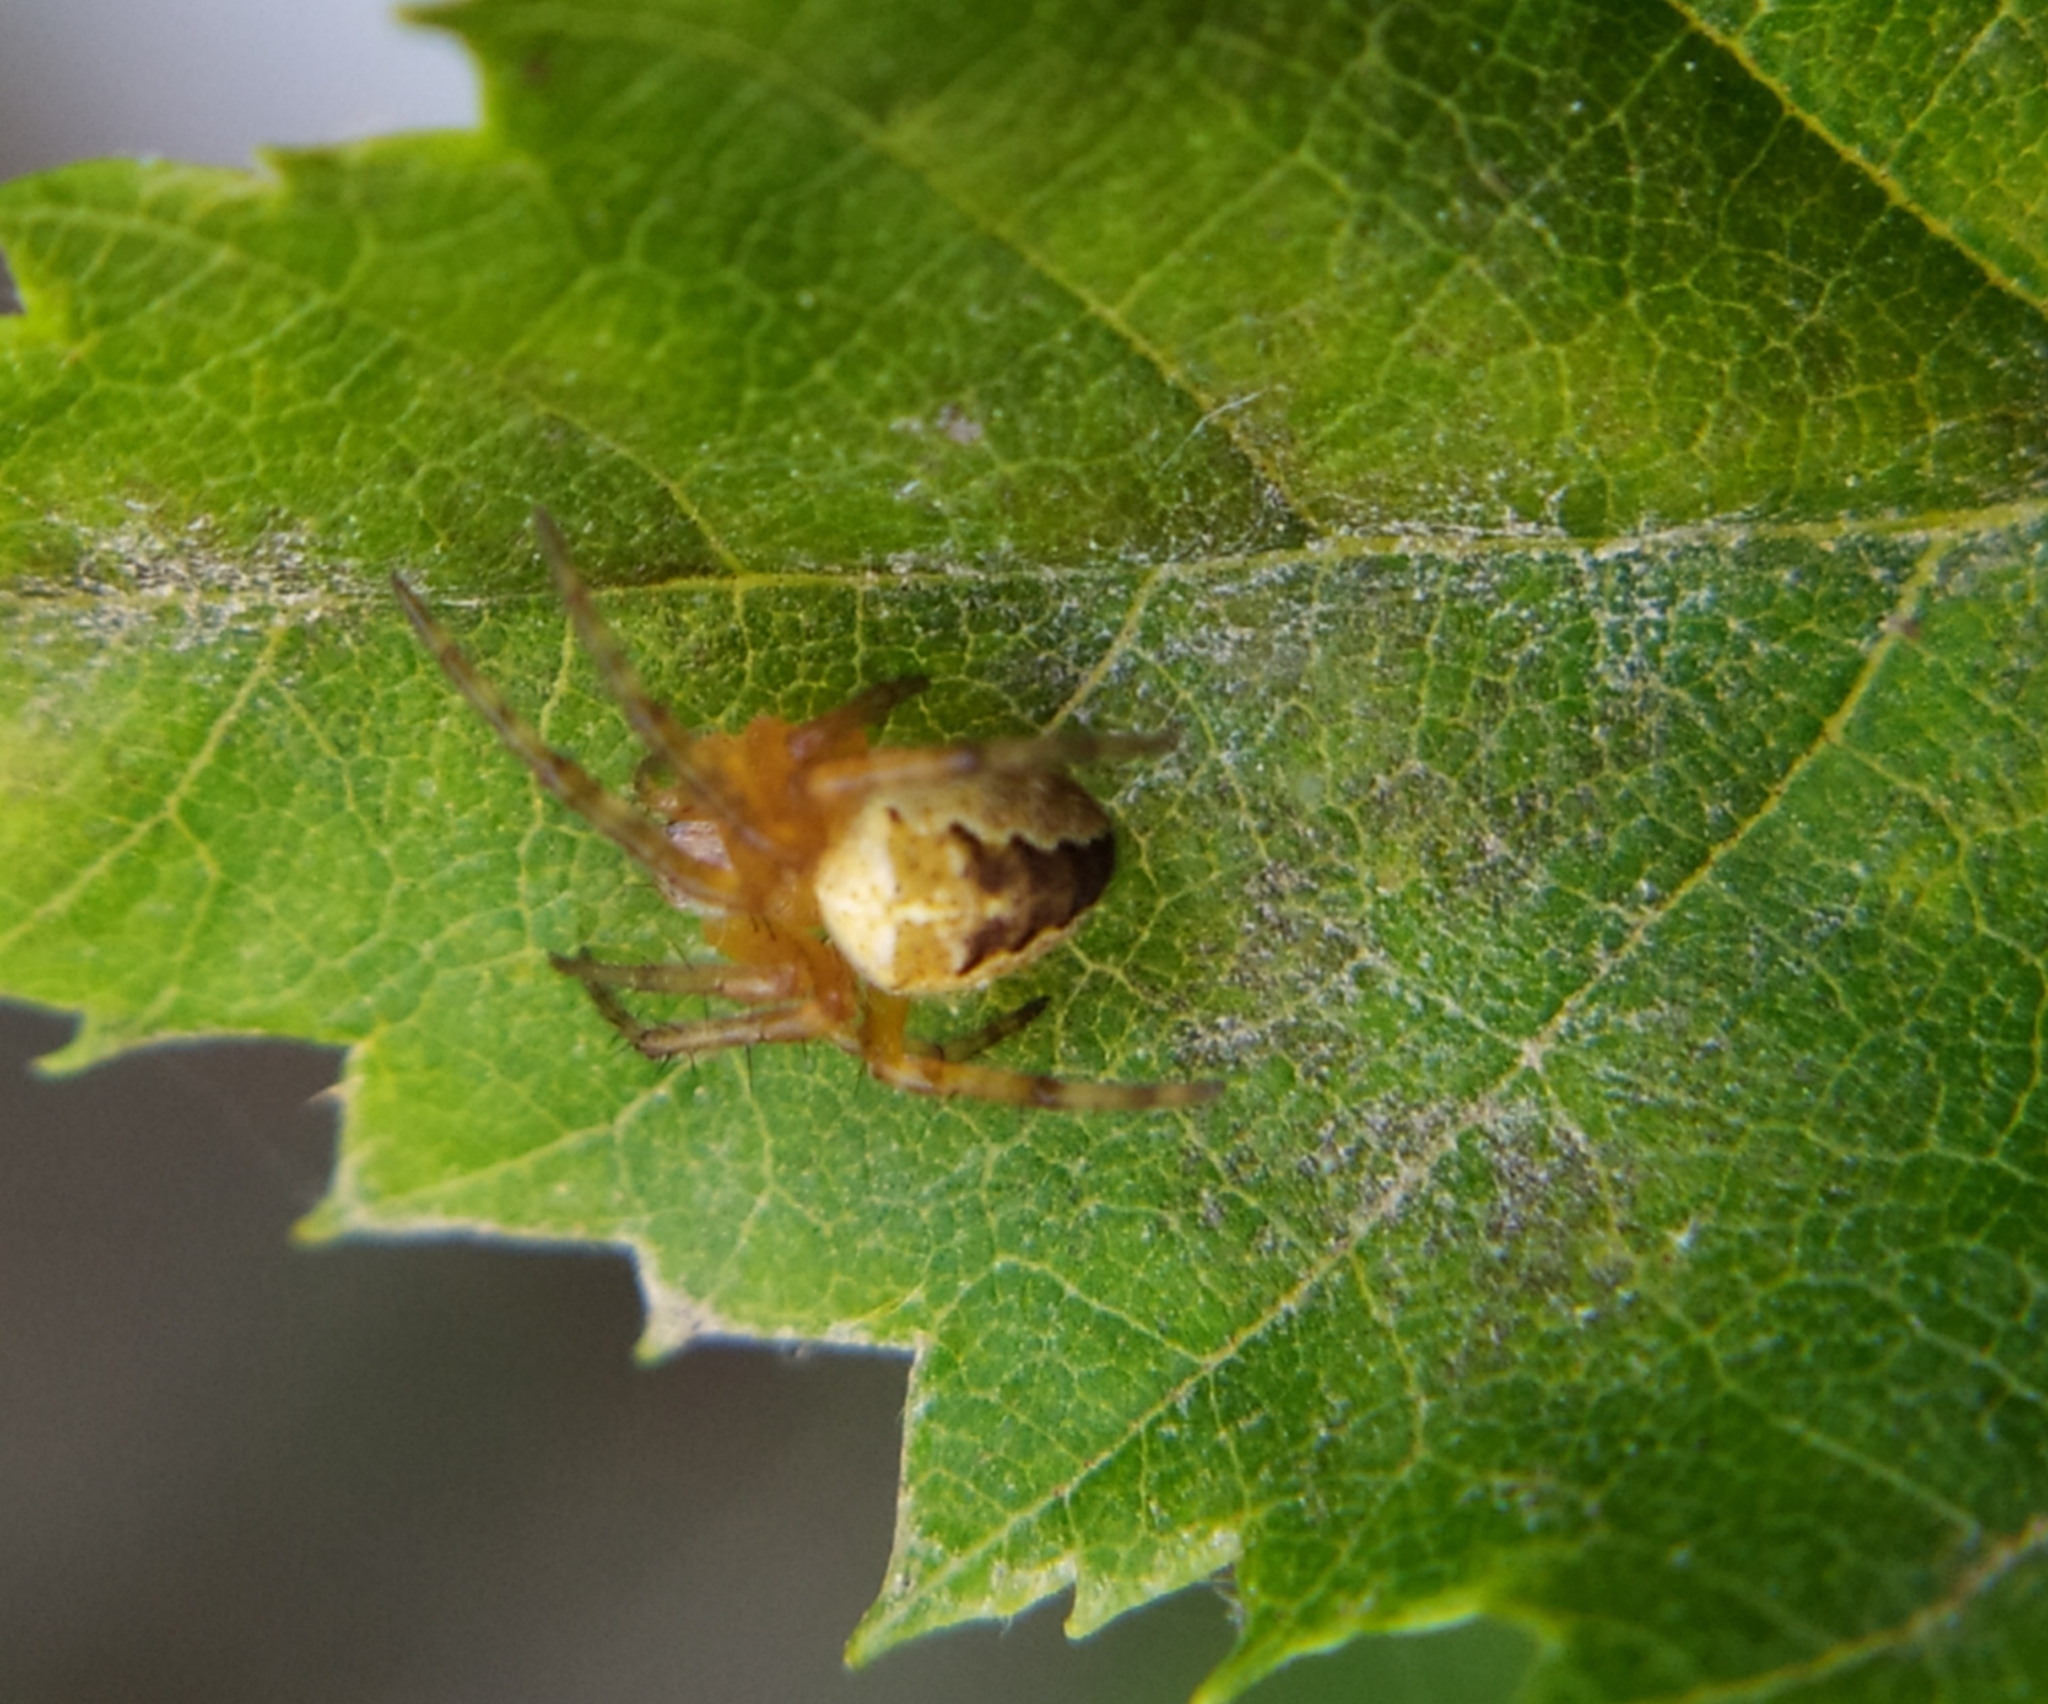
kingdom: Animalia
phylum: Arthropoda
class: Arachnida
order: Araneae
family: Araneidae
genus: Araneus
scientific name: Araneus diadematus
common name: Cross orbweaver
